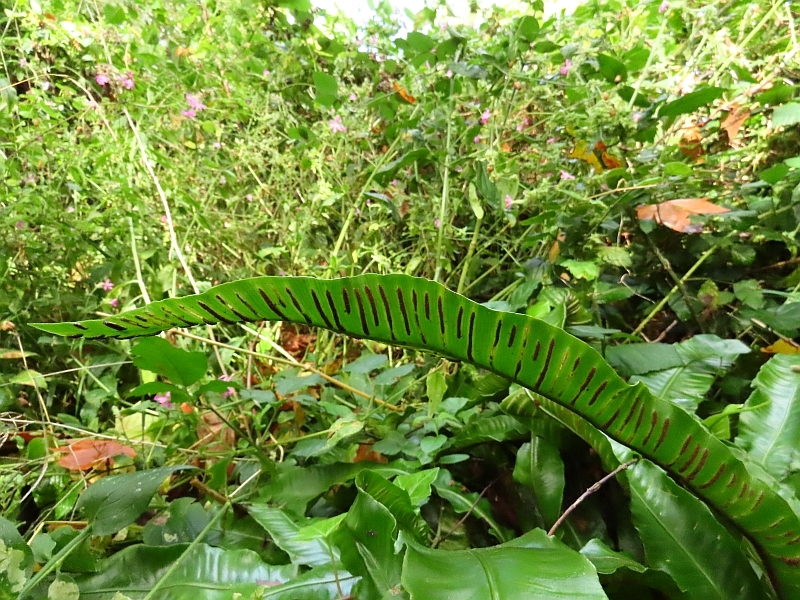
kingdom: Plantae
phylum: Tracheophyta
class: Polypodiopsida
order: Polypodiales
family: Aspleniaceae
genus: Asplenium
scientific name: Asplenium scolopendrium
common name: Hart's-tongue fern
